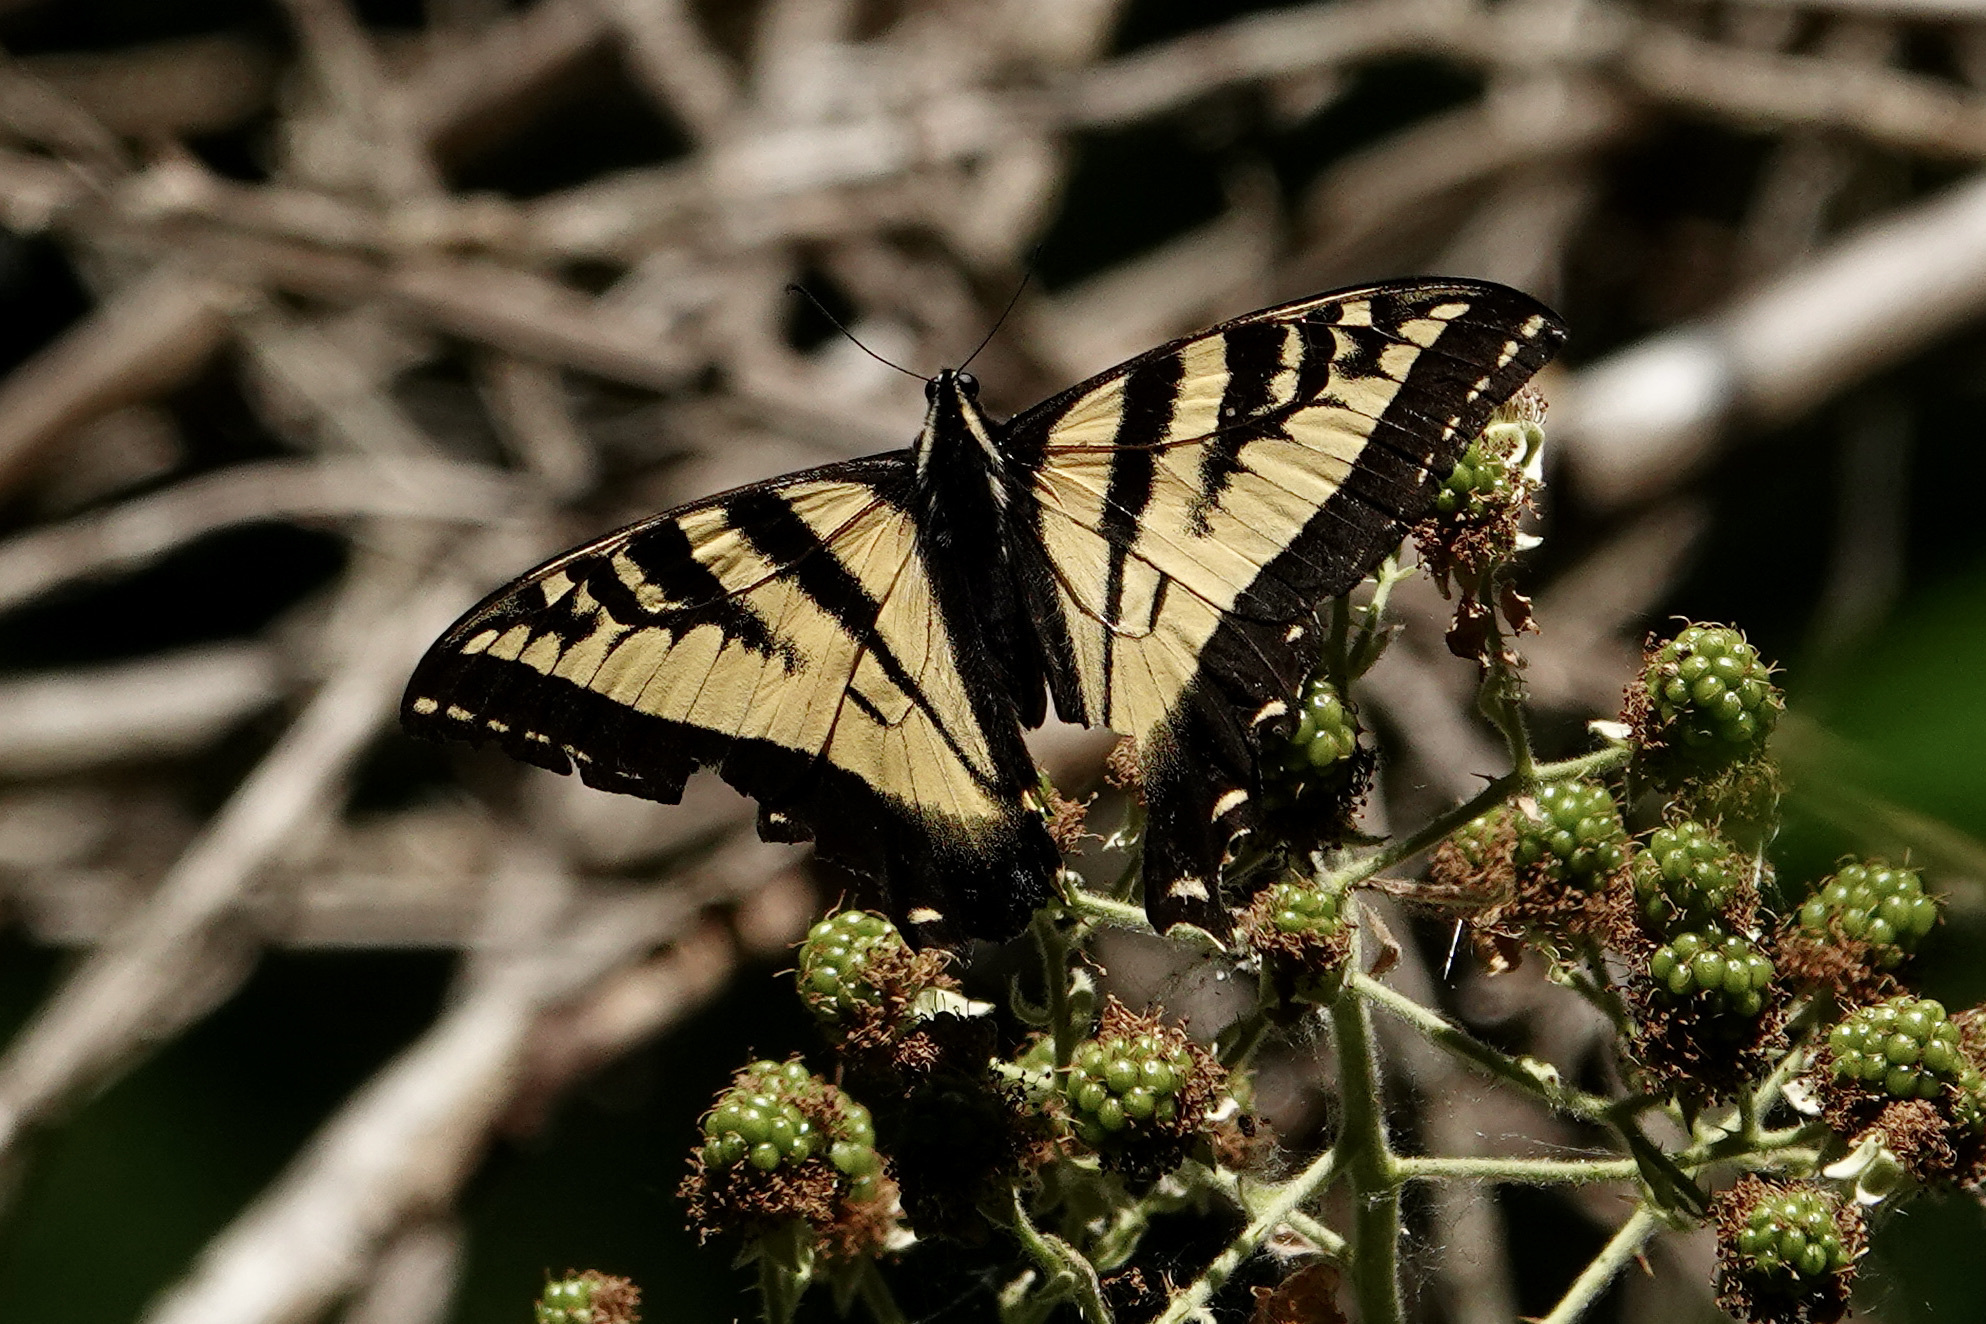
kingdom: Animalia
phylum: Arthropoda
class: Insecta
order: Lepidoptera
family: Papilionidae
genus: Papilio
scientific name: Papilio rutulus
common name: Western tiger swallowtail
